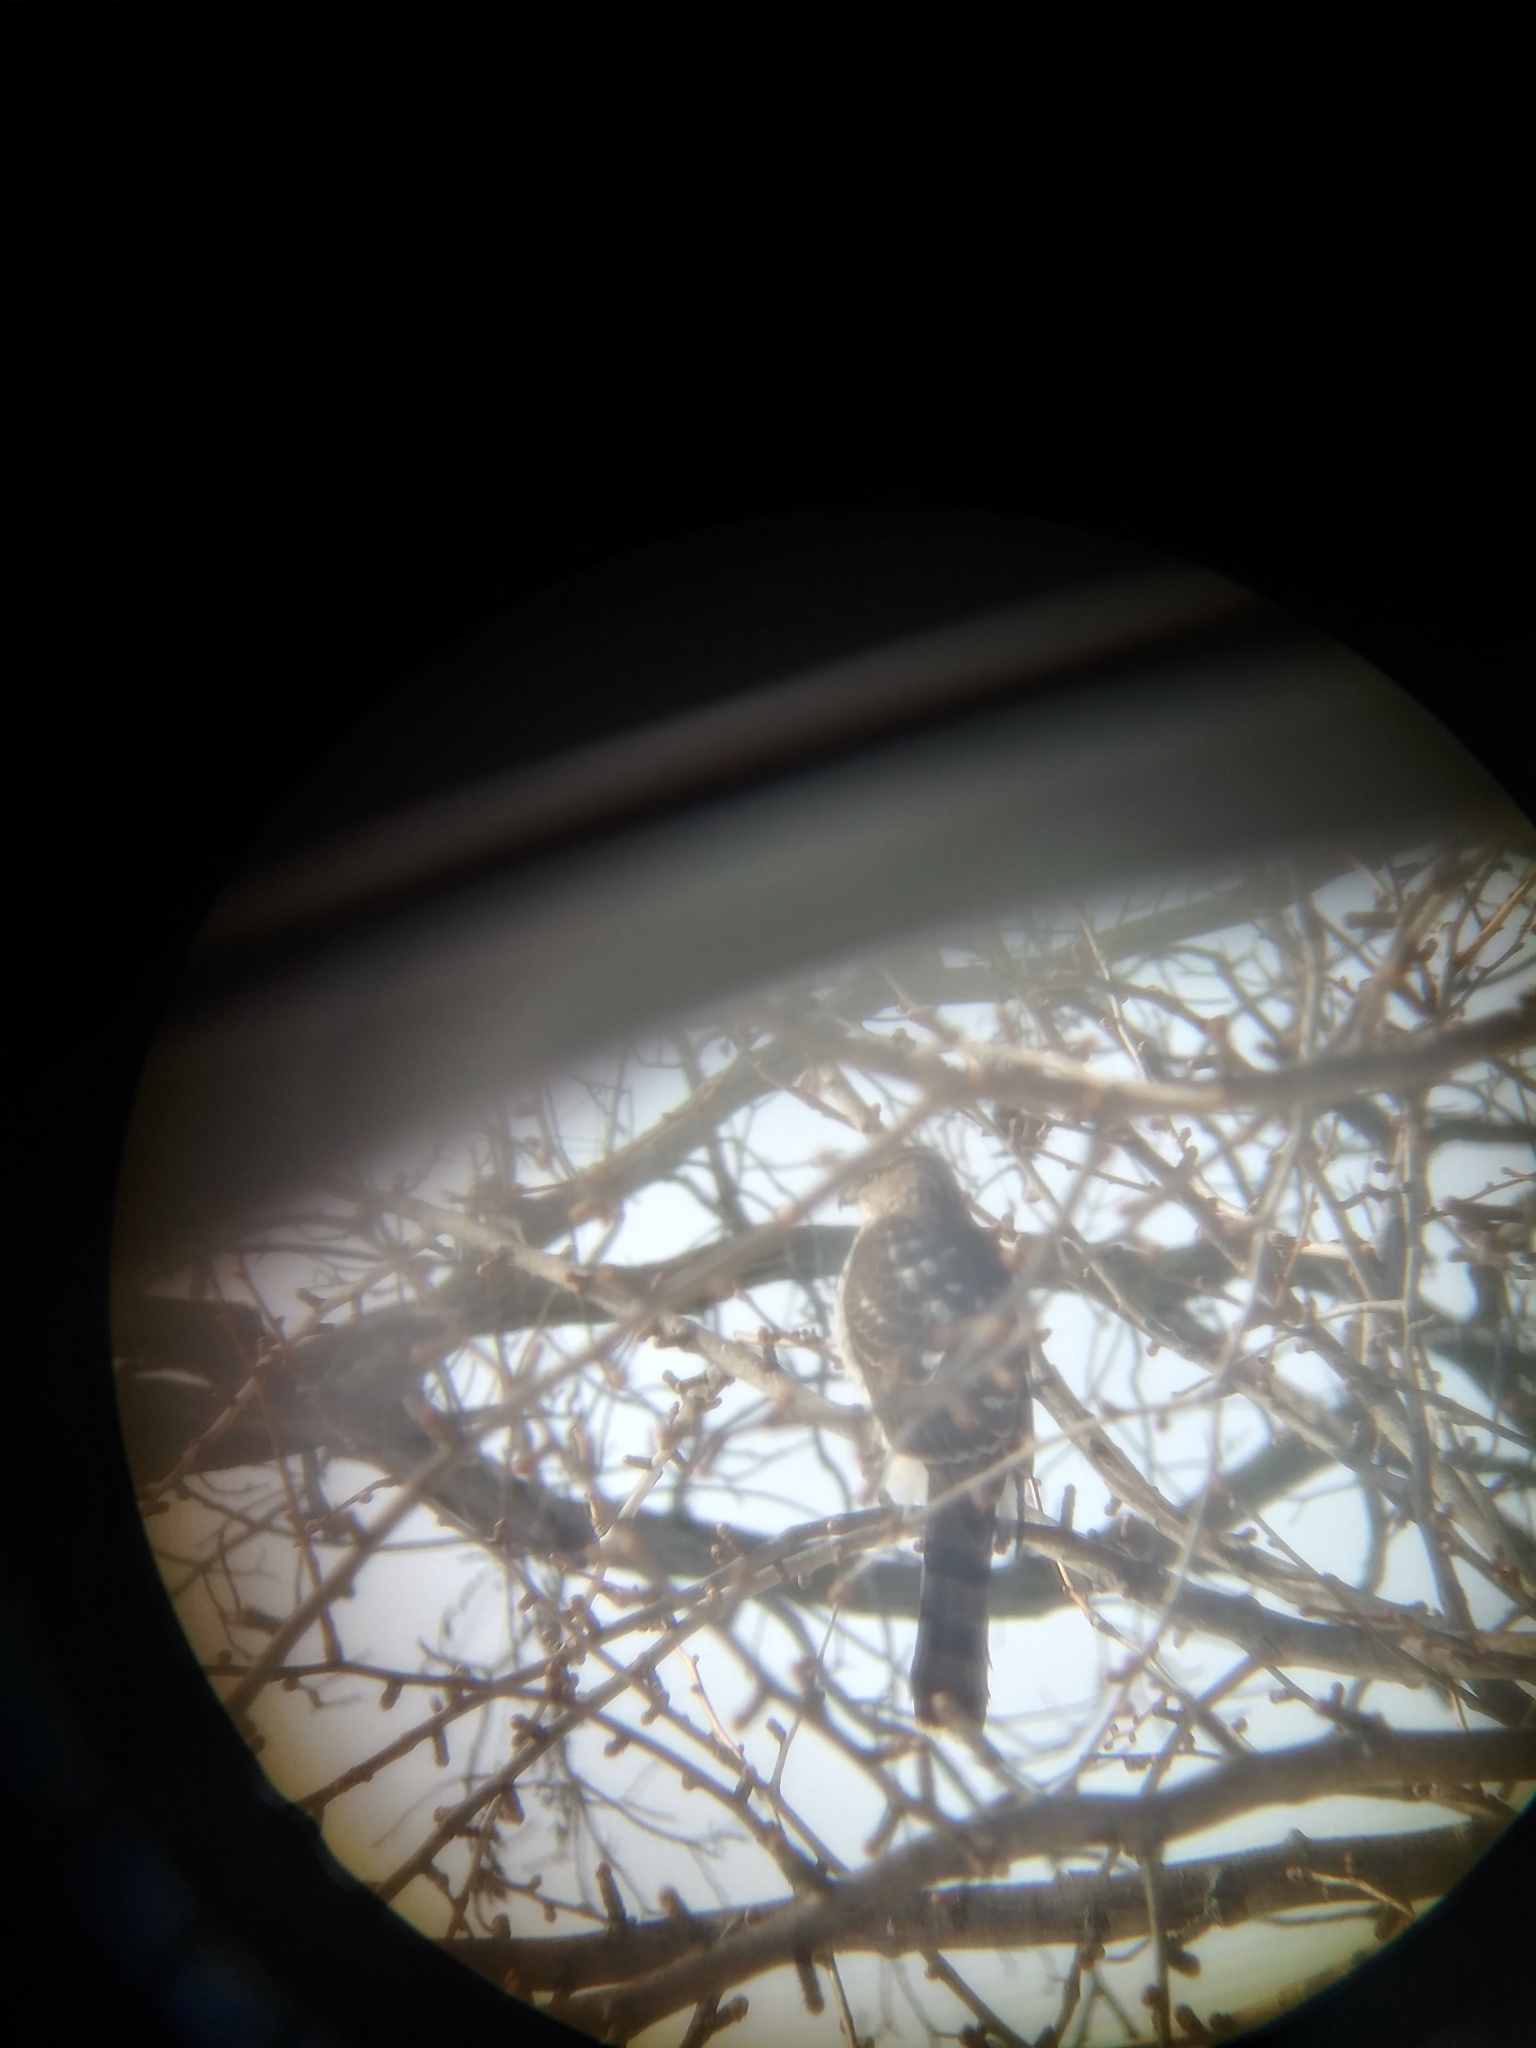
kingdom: Animalia
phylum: Chordata
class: Aves
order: Accipitriformes
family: Accipitridae
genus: Accipiter
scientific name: Accipiter cooperii
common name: Cooper's hawk
